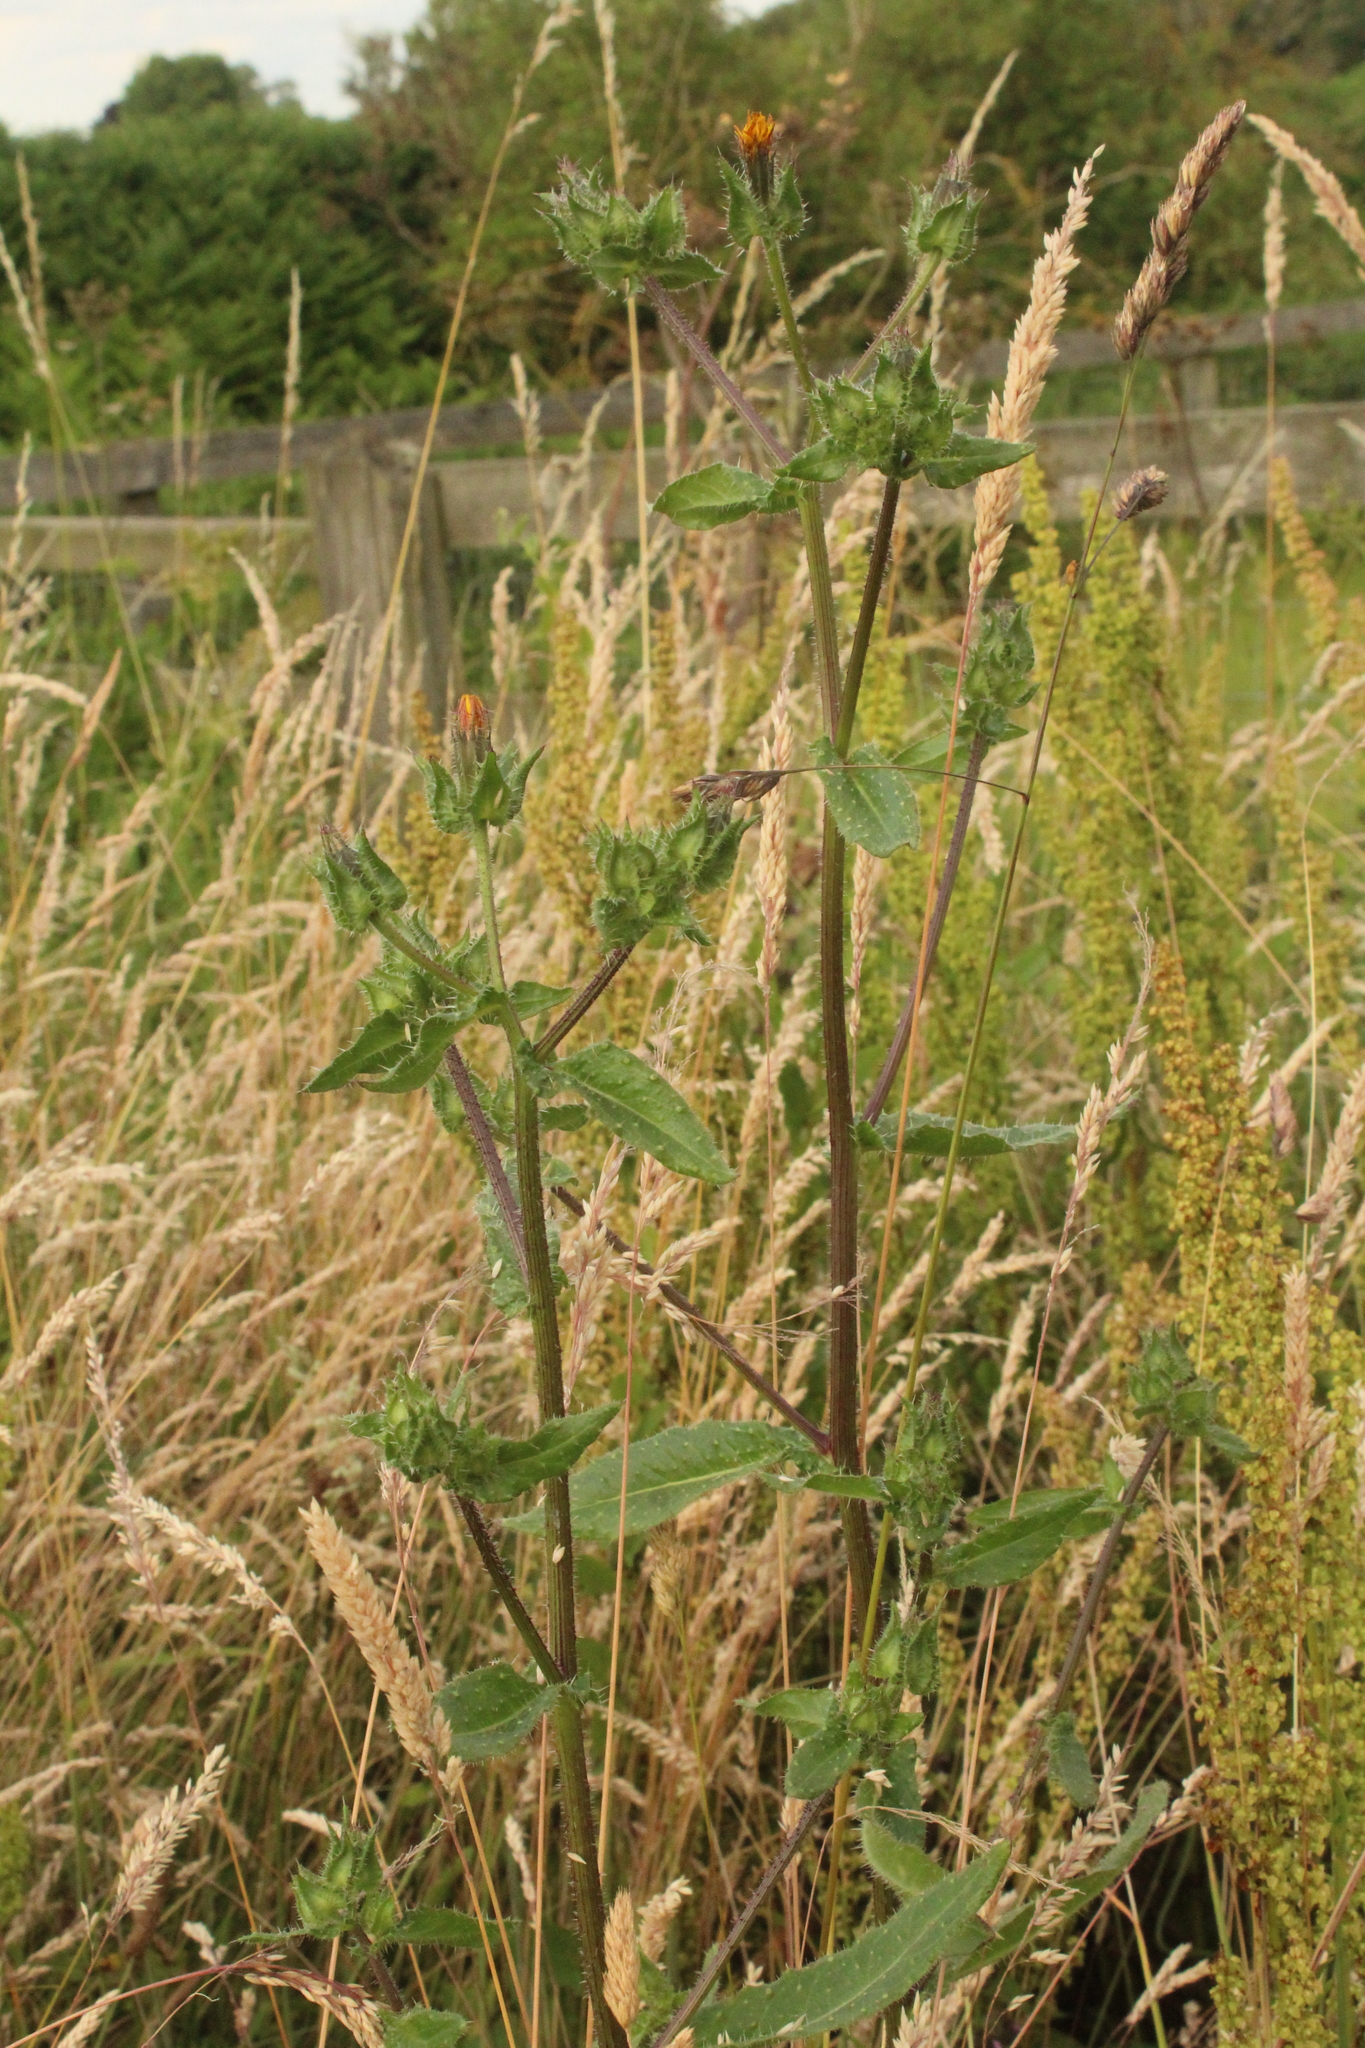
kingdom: Plantae
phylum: Tracheophyta
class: Magnoliopsida
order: Asterales
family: Asteraceae
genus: Helminthotheca
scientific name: Helminthotheca echioides
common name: Ox-tongue
